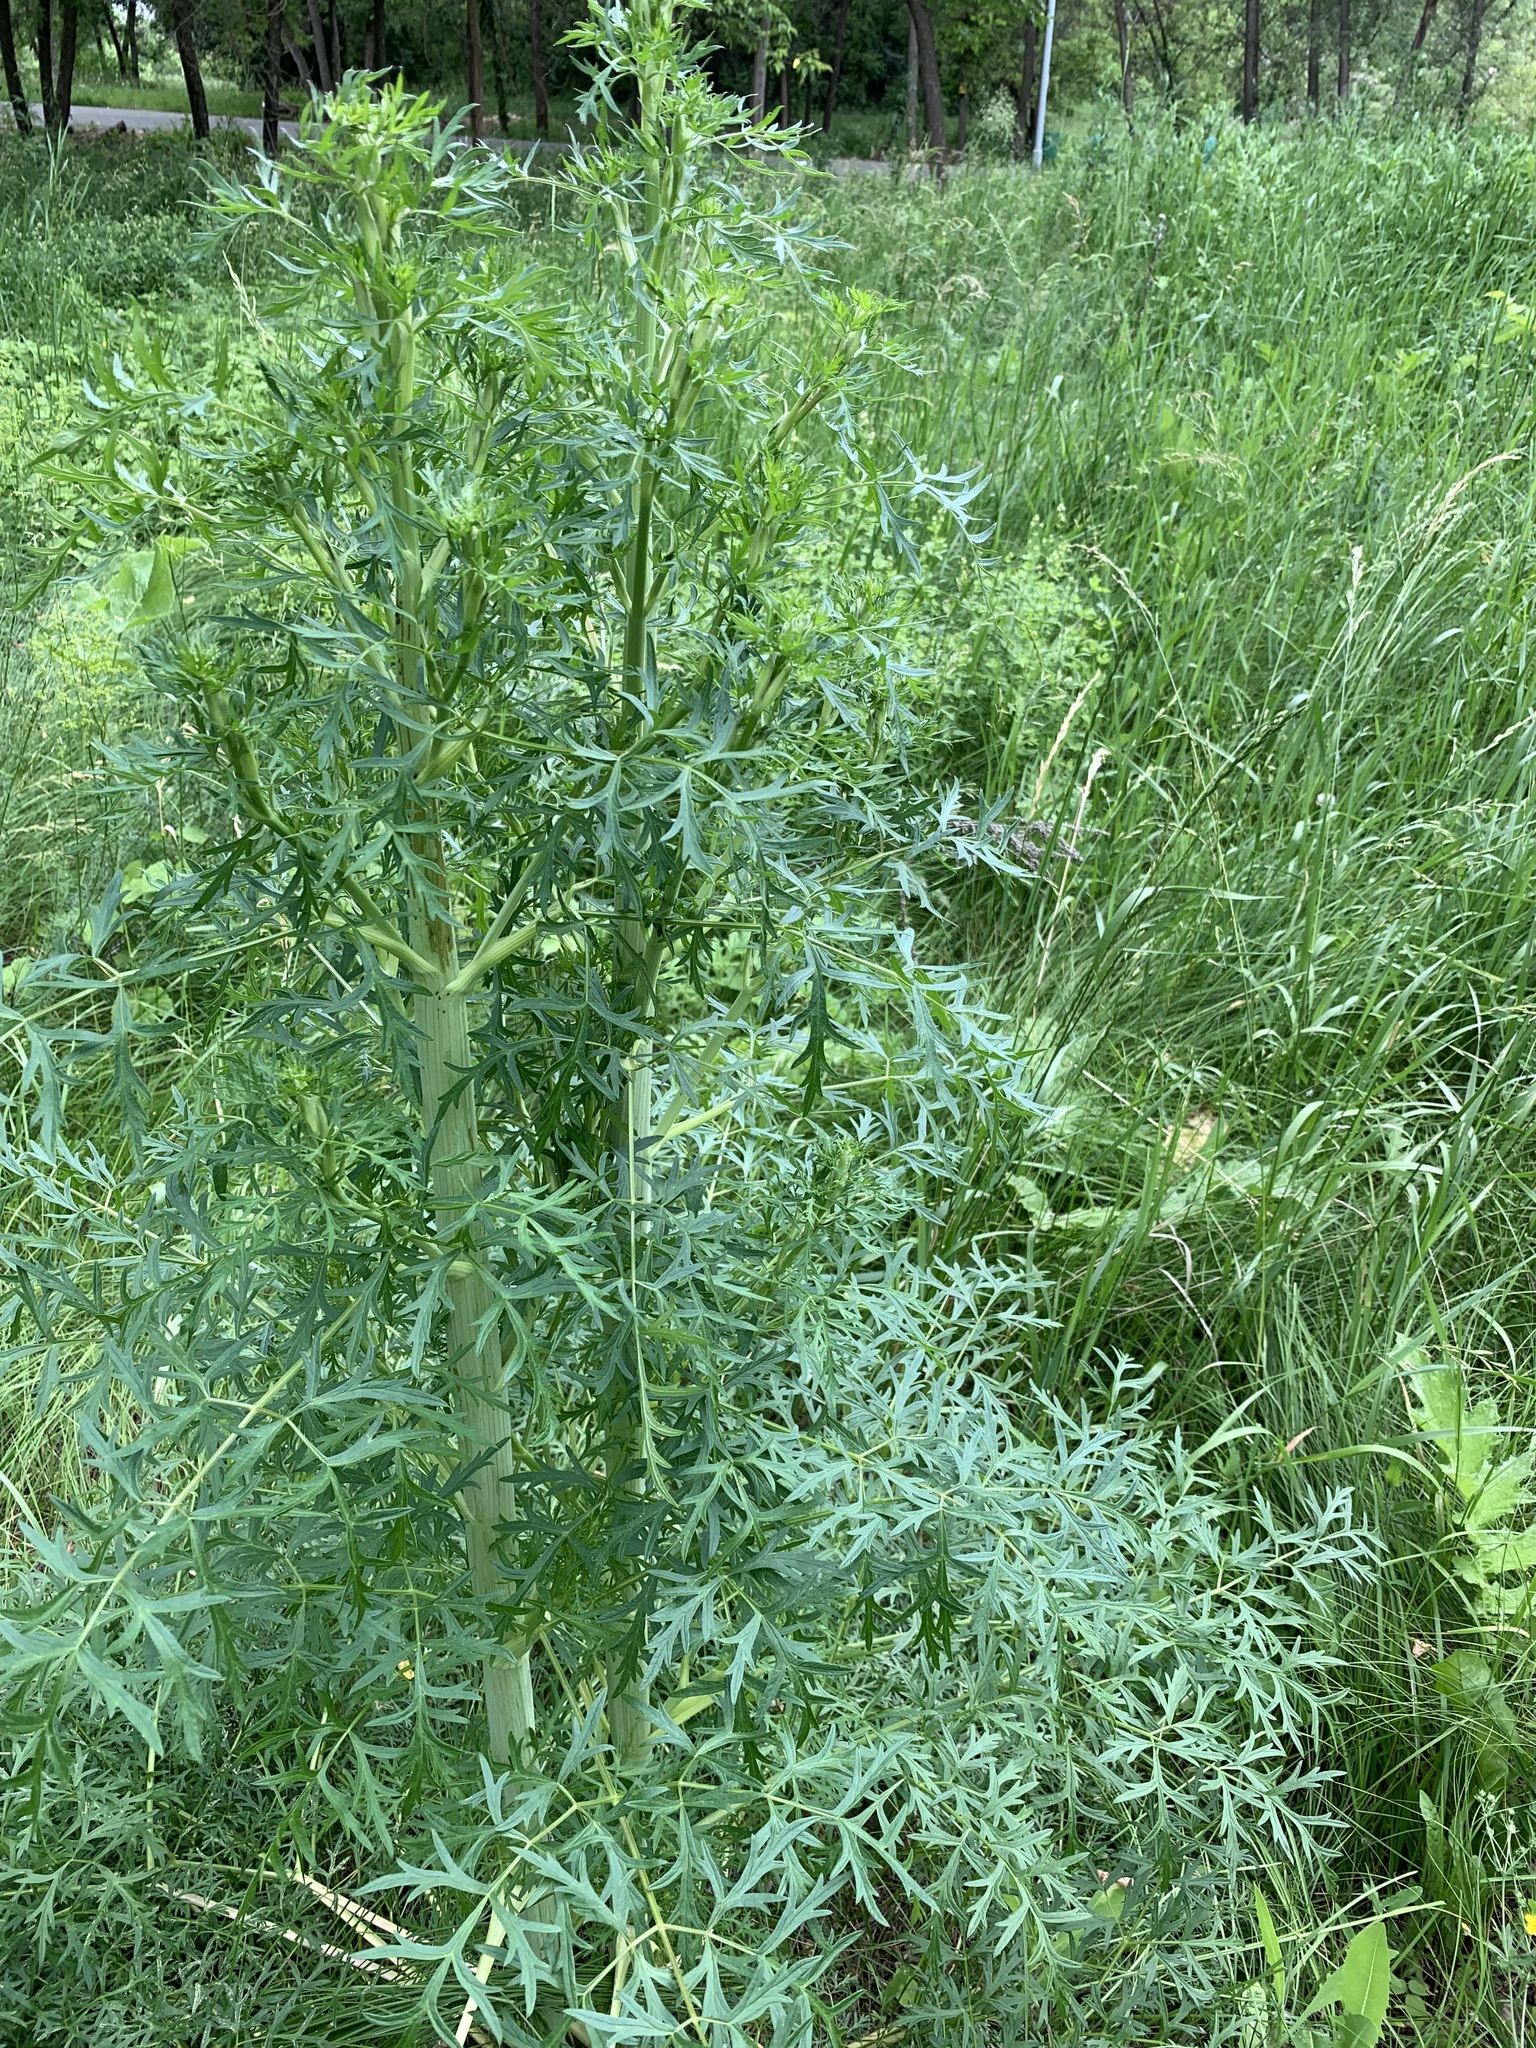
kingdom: Plantae
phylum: Tracheophyta
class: Magnoliopsida
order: Apiales
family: Apiaceae
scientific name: Apiaceae
